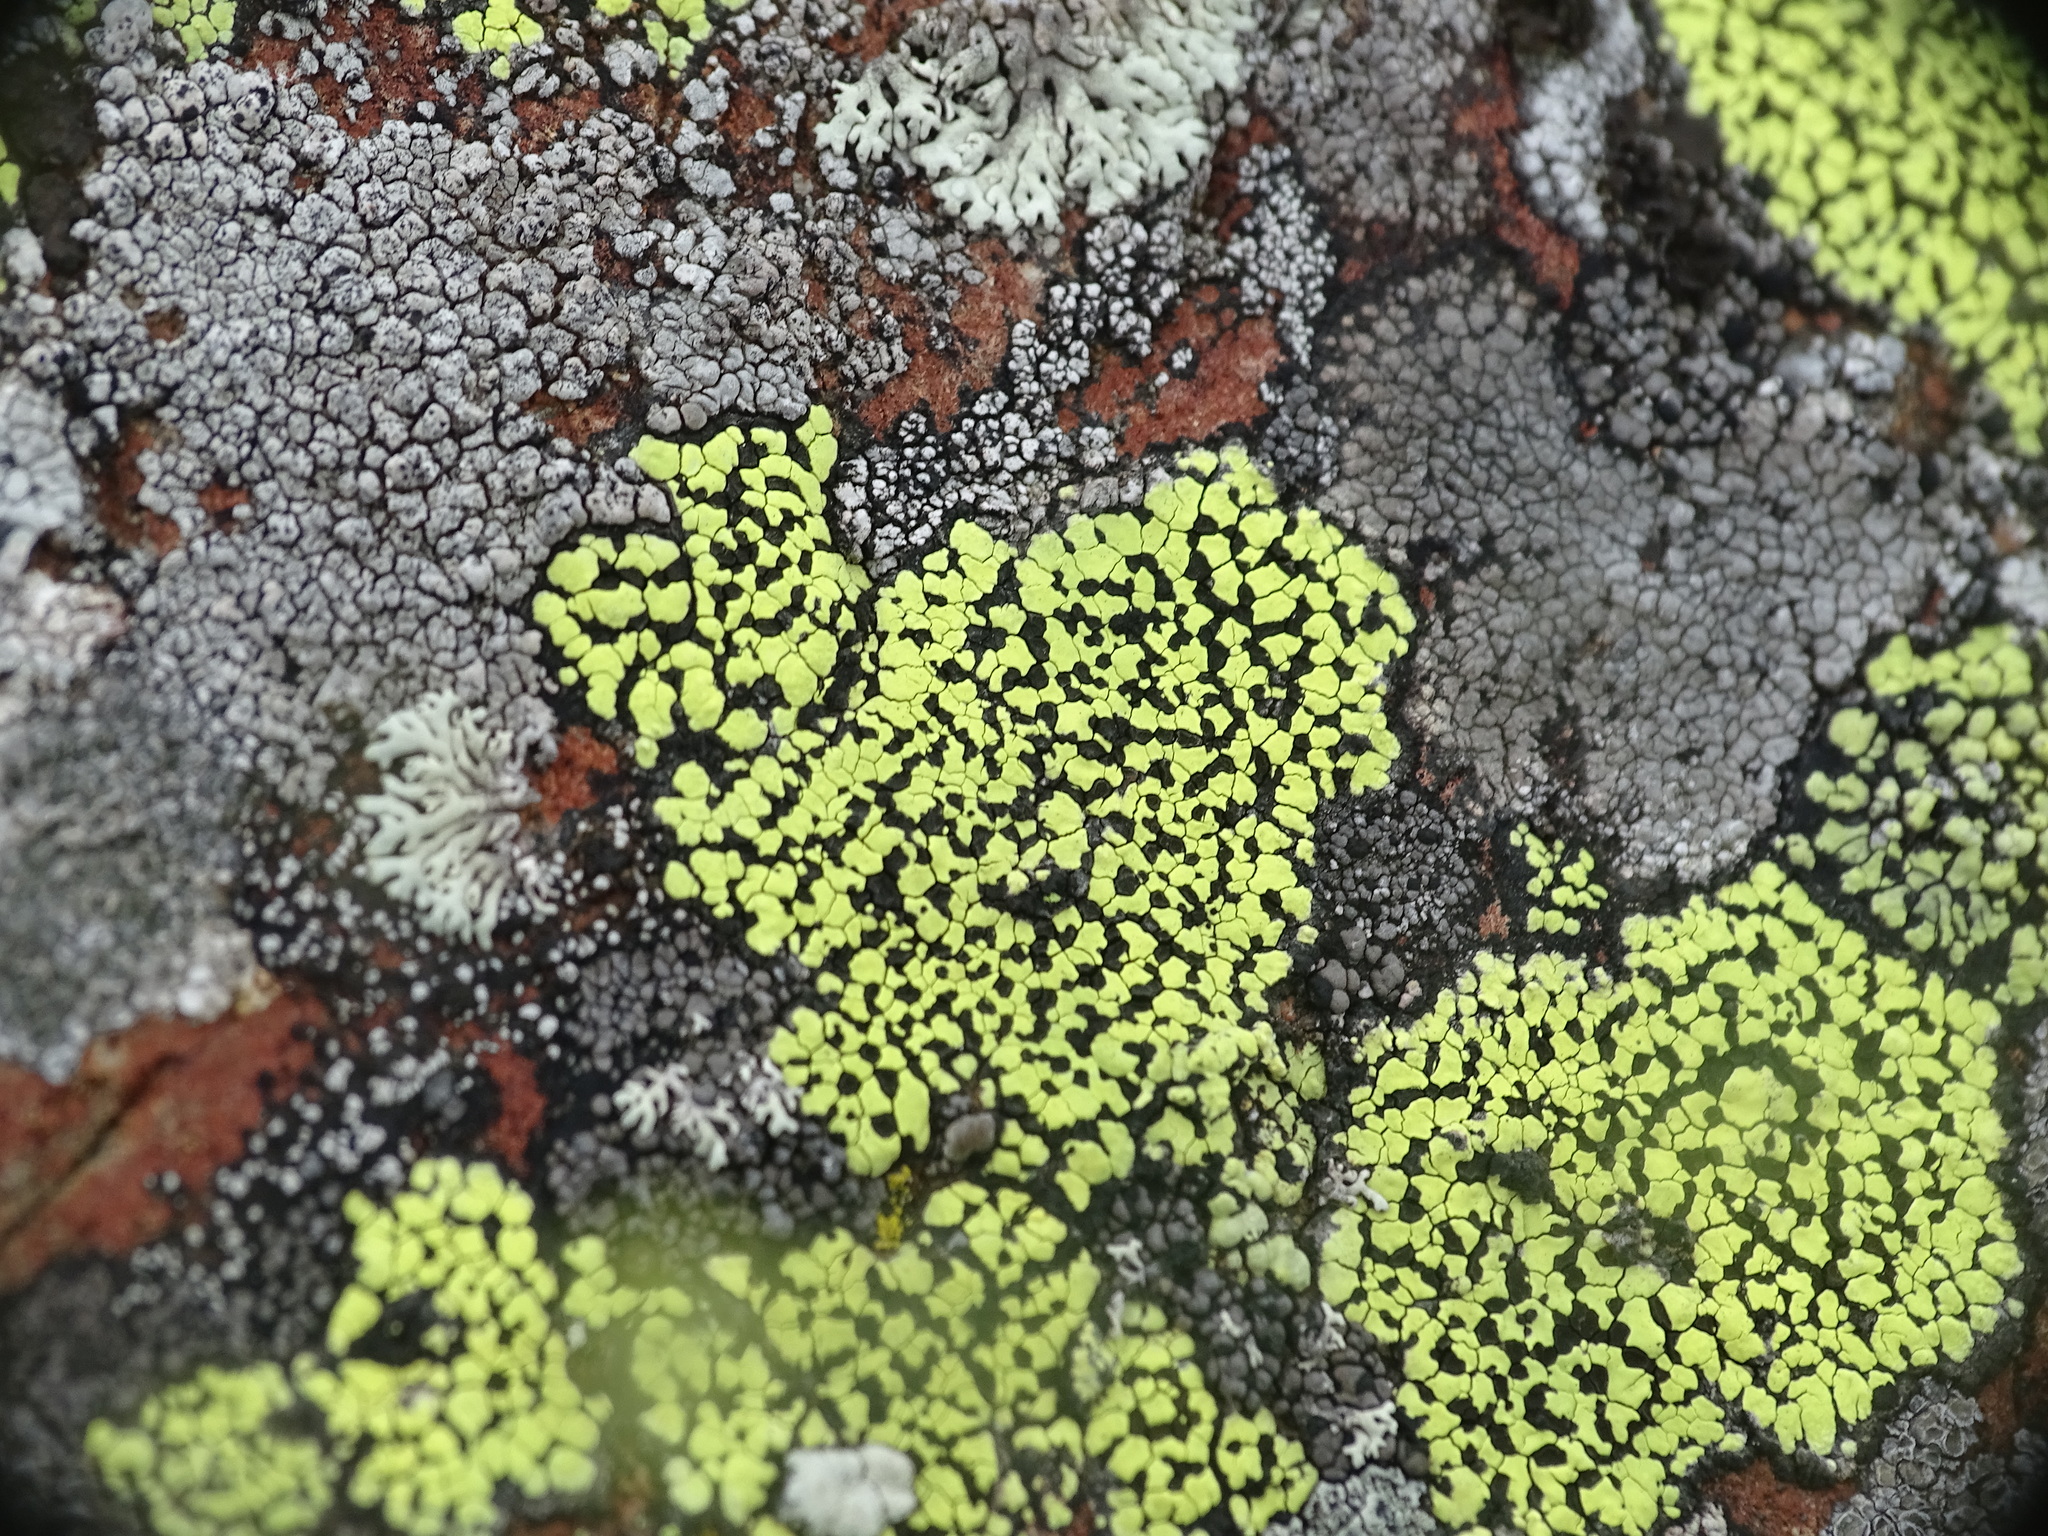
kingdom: Fungi
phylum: Ascomycota
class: Lecanoromycetes
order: Rhizocarpales
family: Rhizocarpaceae
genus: Rhizocarpon
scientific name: Rhizocarpon geographicum
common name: Yellow map lichen
